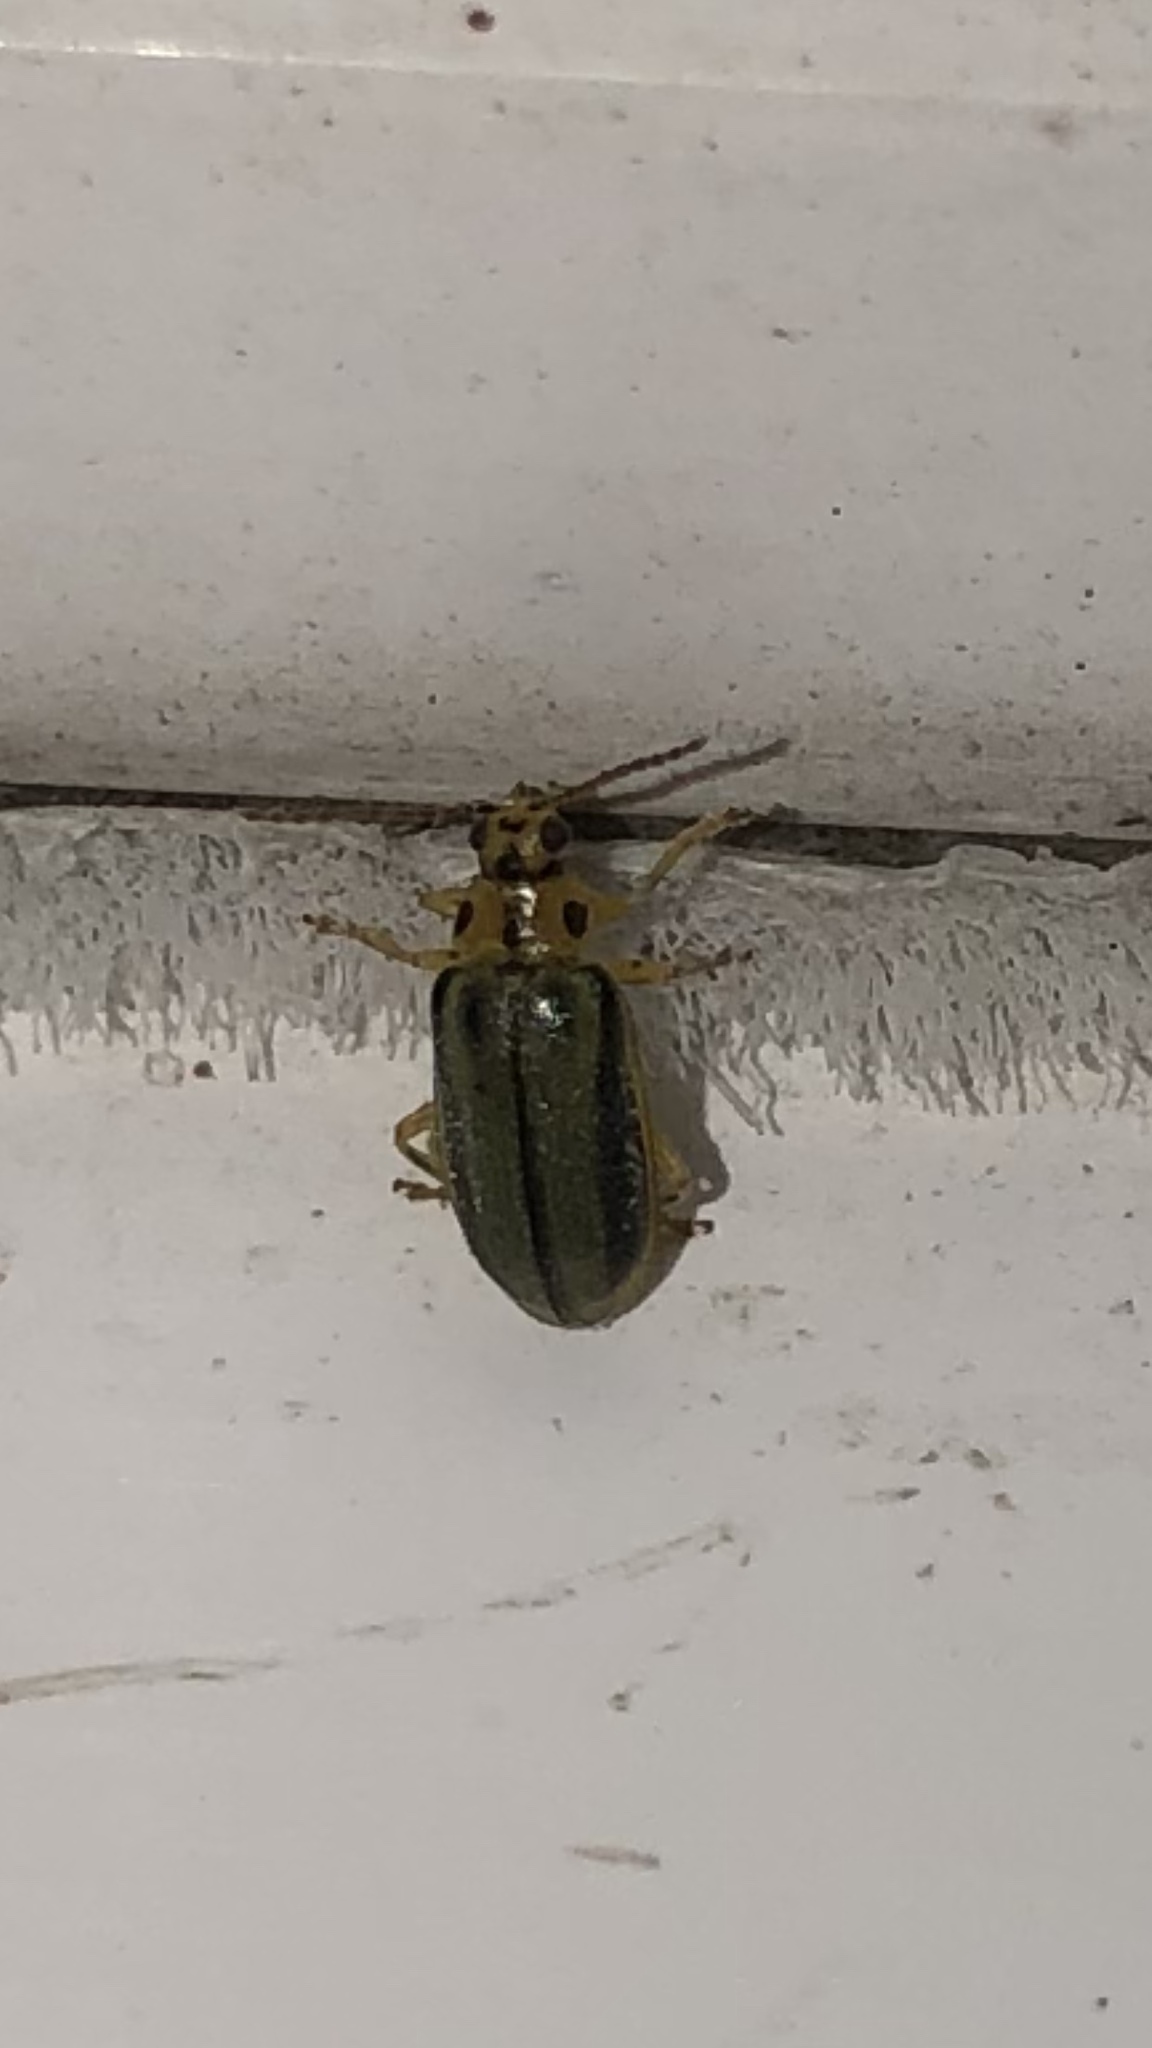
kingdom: Animalia
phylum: Arthropoda
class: Insecta
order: Coleoptera
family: Chrysomelidae
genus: Xanthogaleruca
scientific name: Xanthogaleruca luteola
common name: Elm leaf beetle
